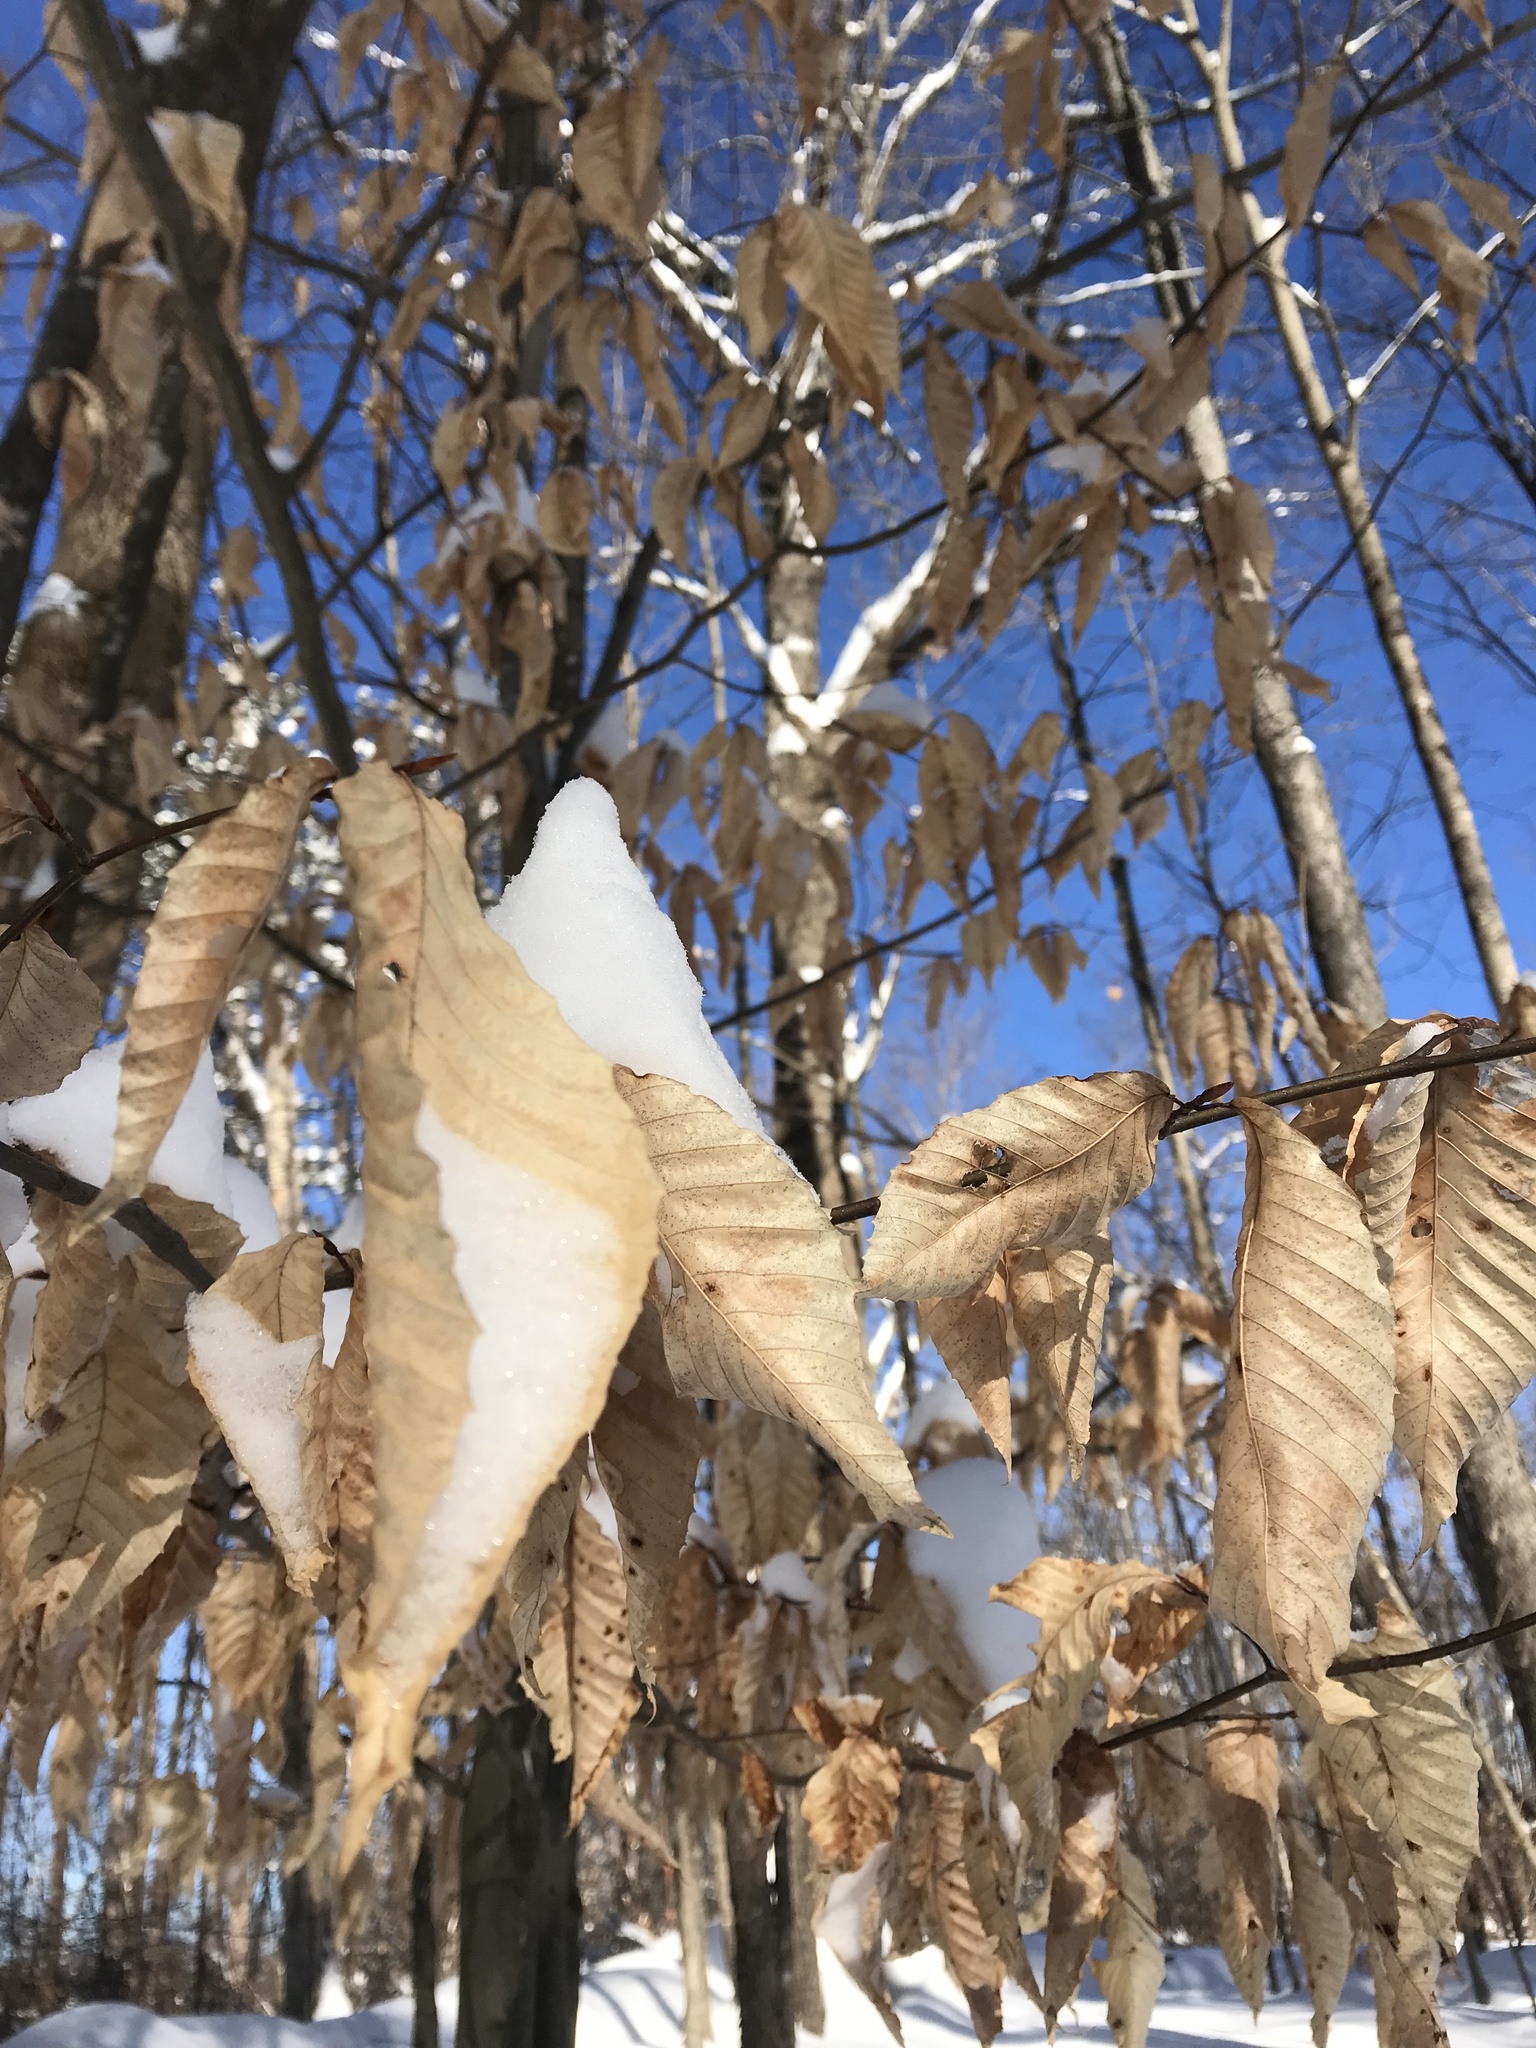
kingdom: Plantae
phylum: Tracheophyta
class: Magnoliopsida
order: Fagales
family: Fagaceae
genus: Fagus
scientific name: Fagus grandifolia
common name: American beech
